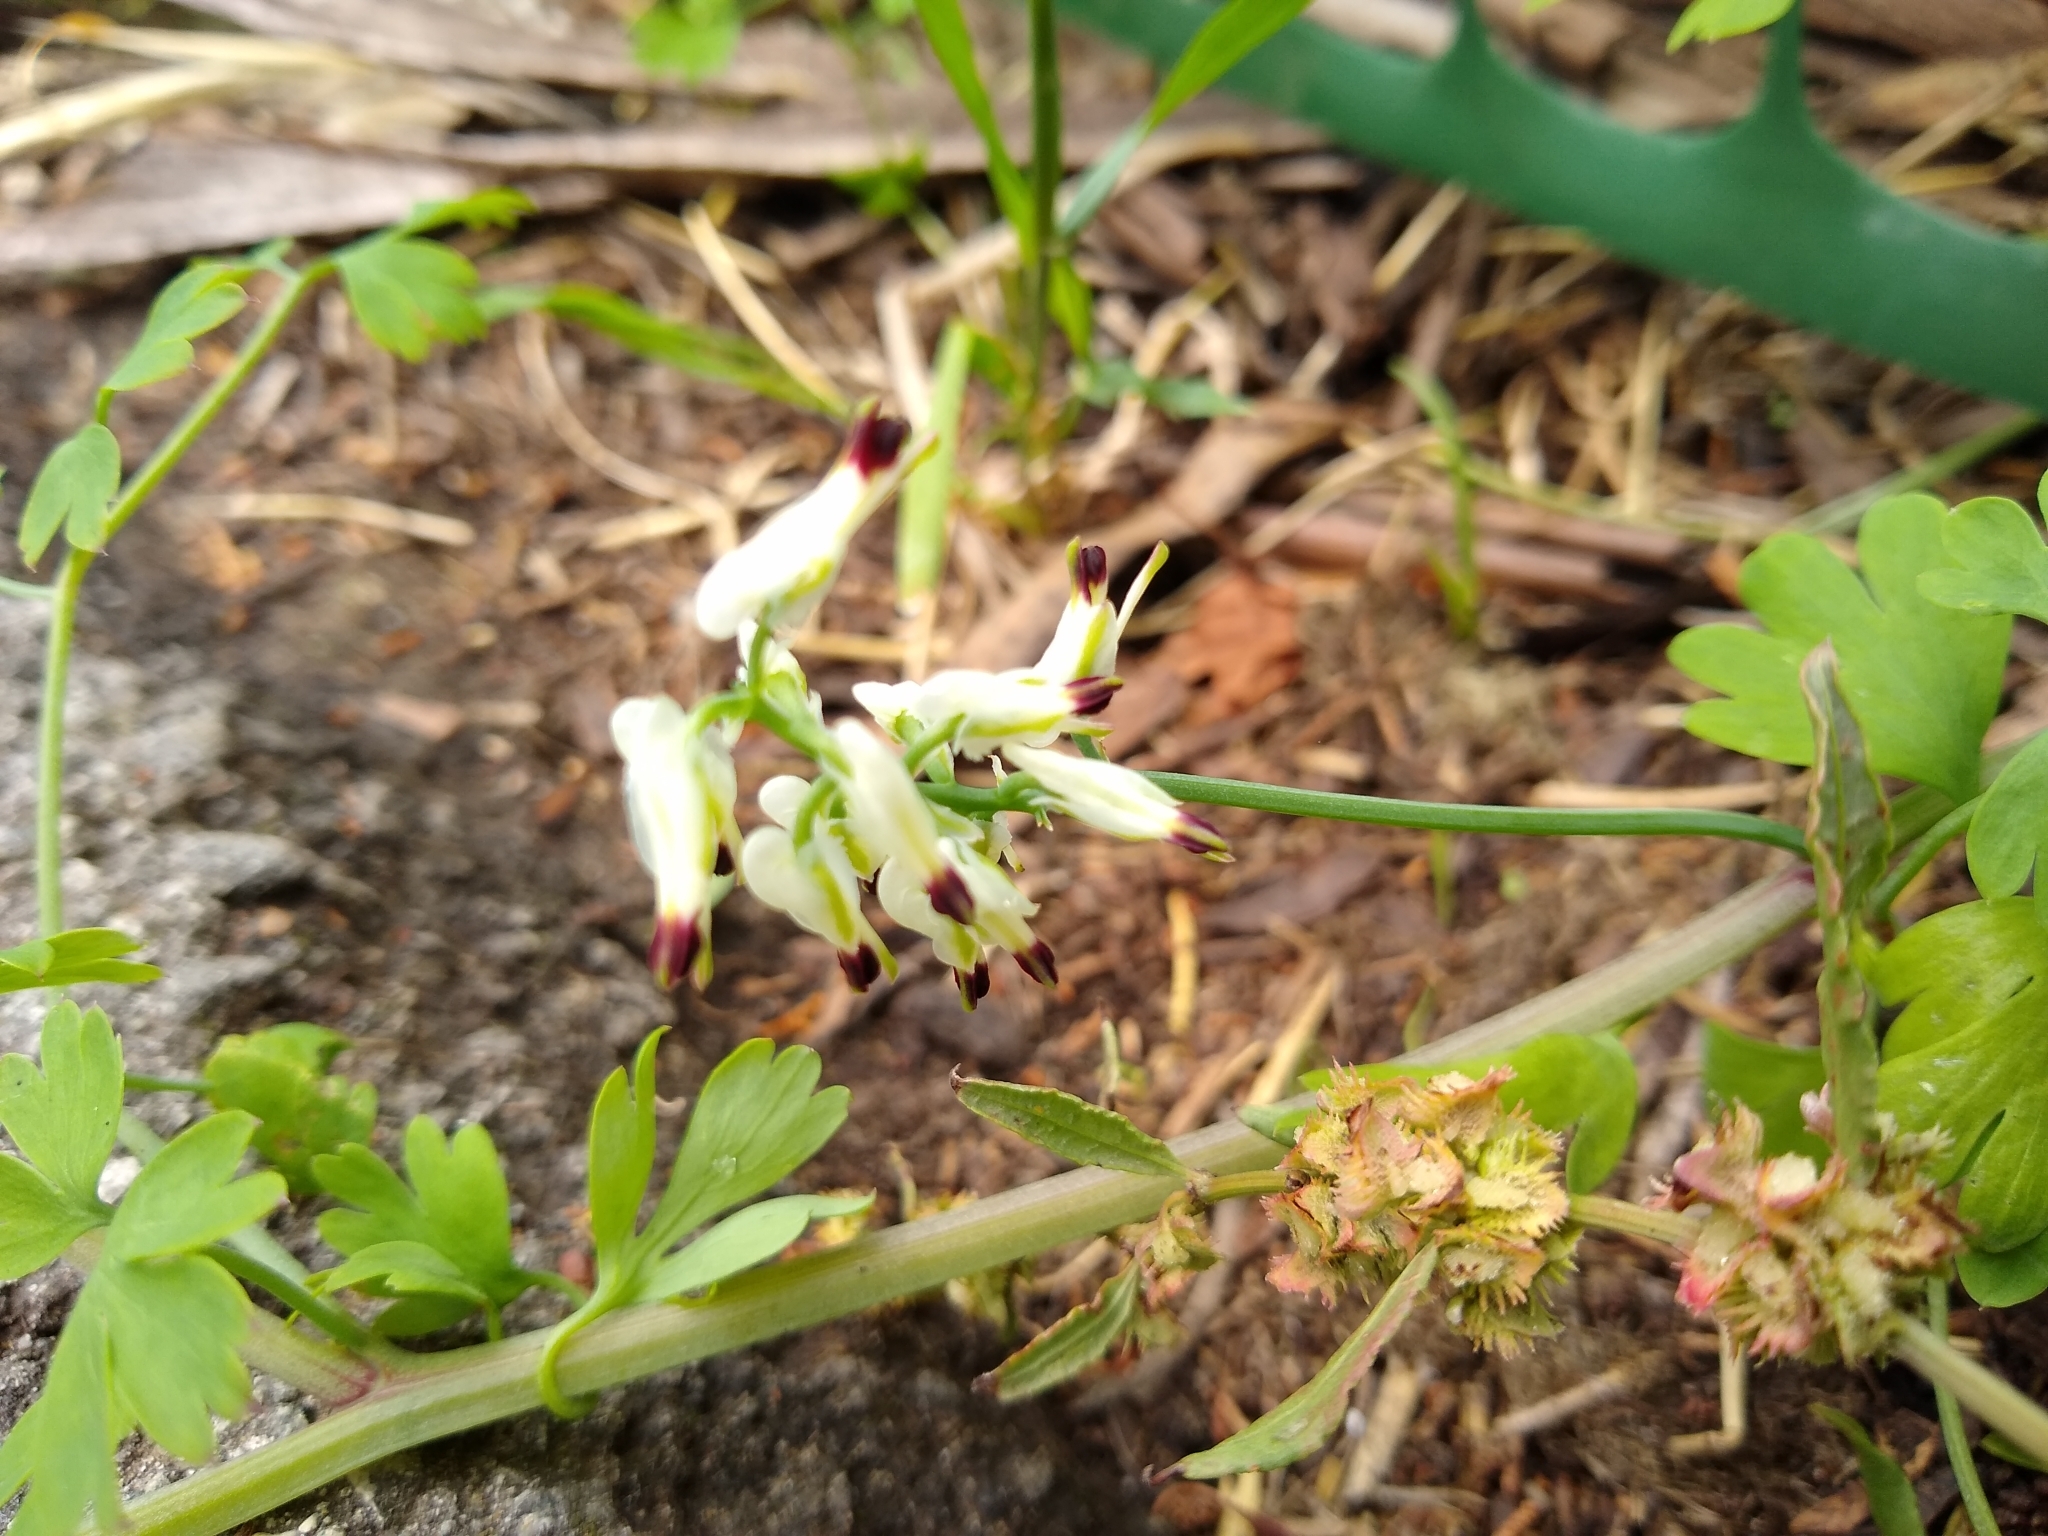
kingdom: Plantae
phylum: Tracheophyta
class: Magnoliopsida
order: Ranunculales
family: Papaveraceae
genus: Fumaria
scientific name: Fumaria capreolata
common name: White ramping-fumitory
